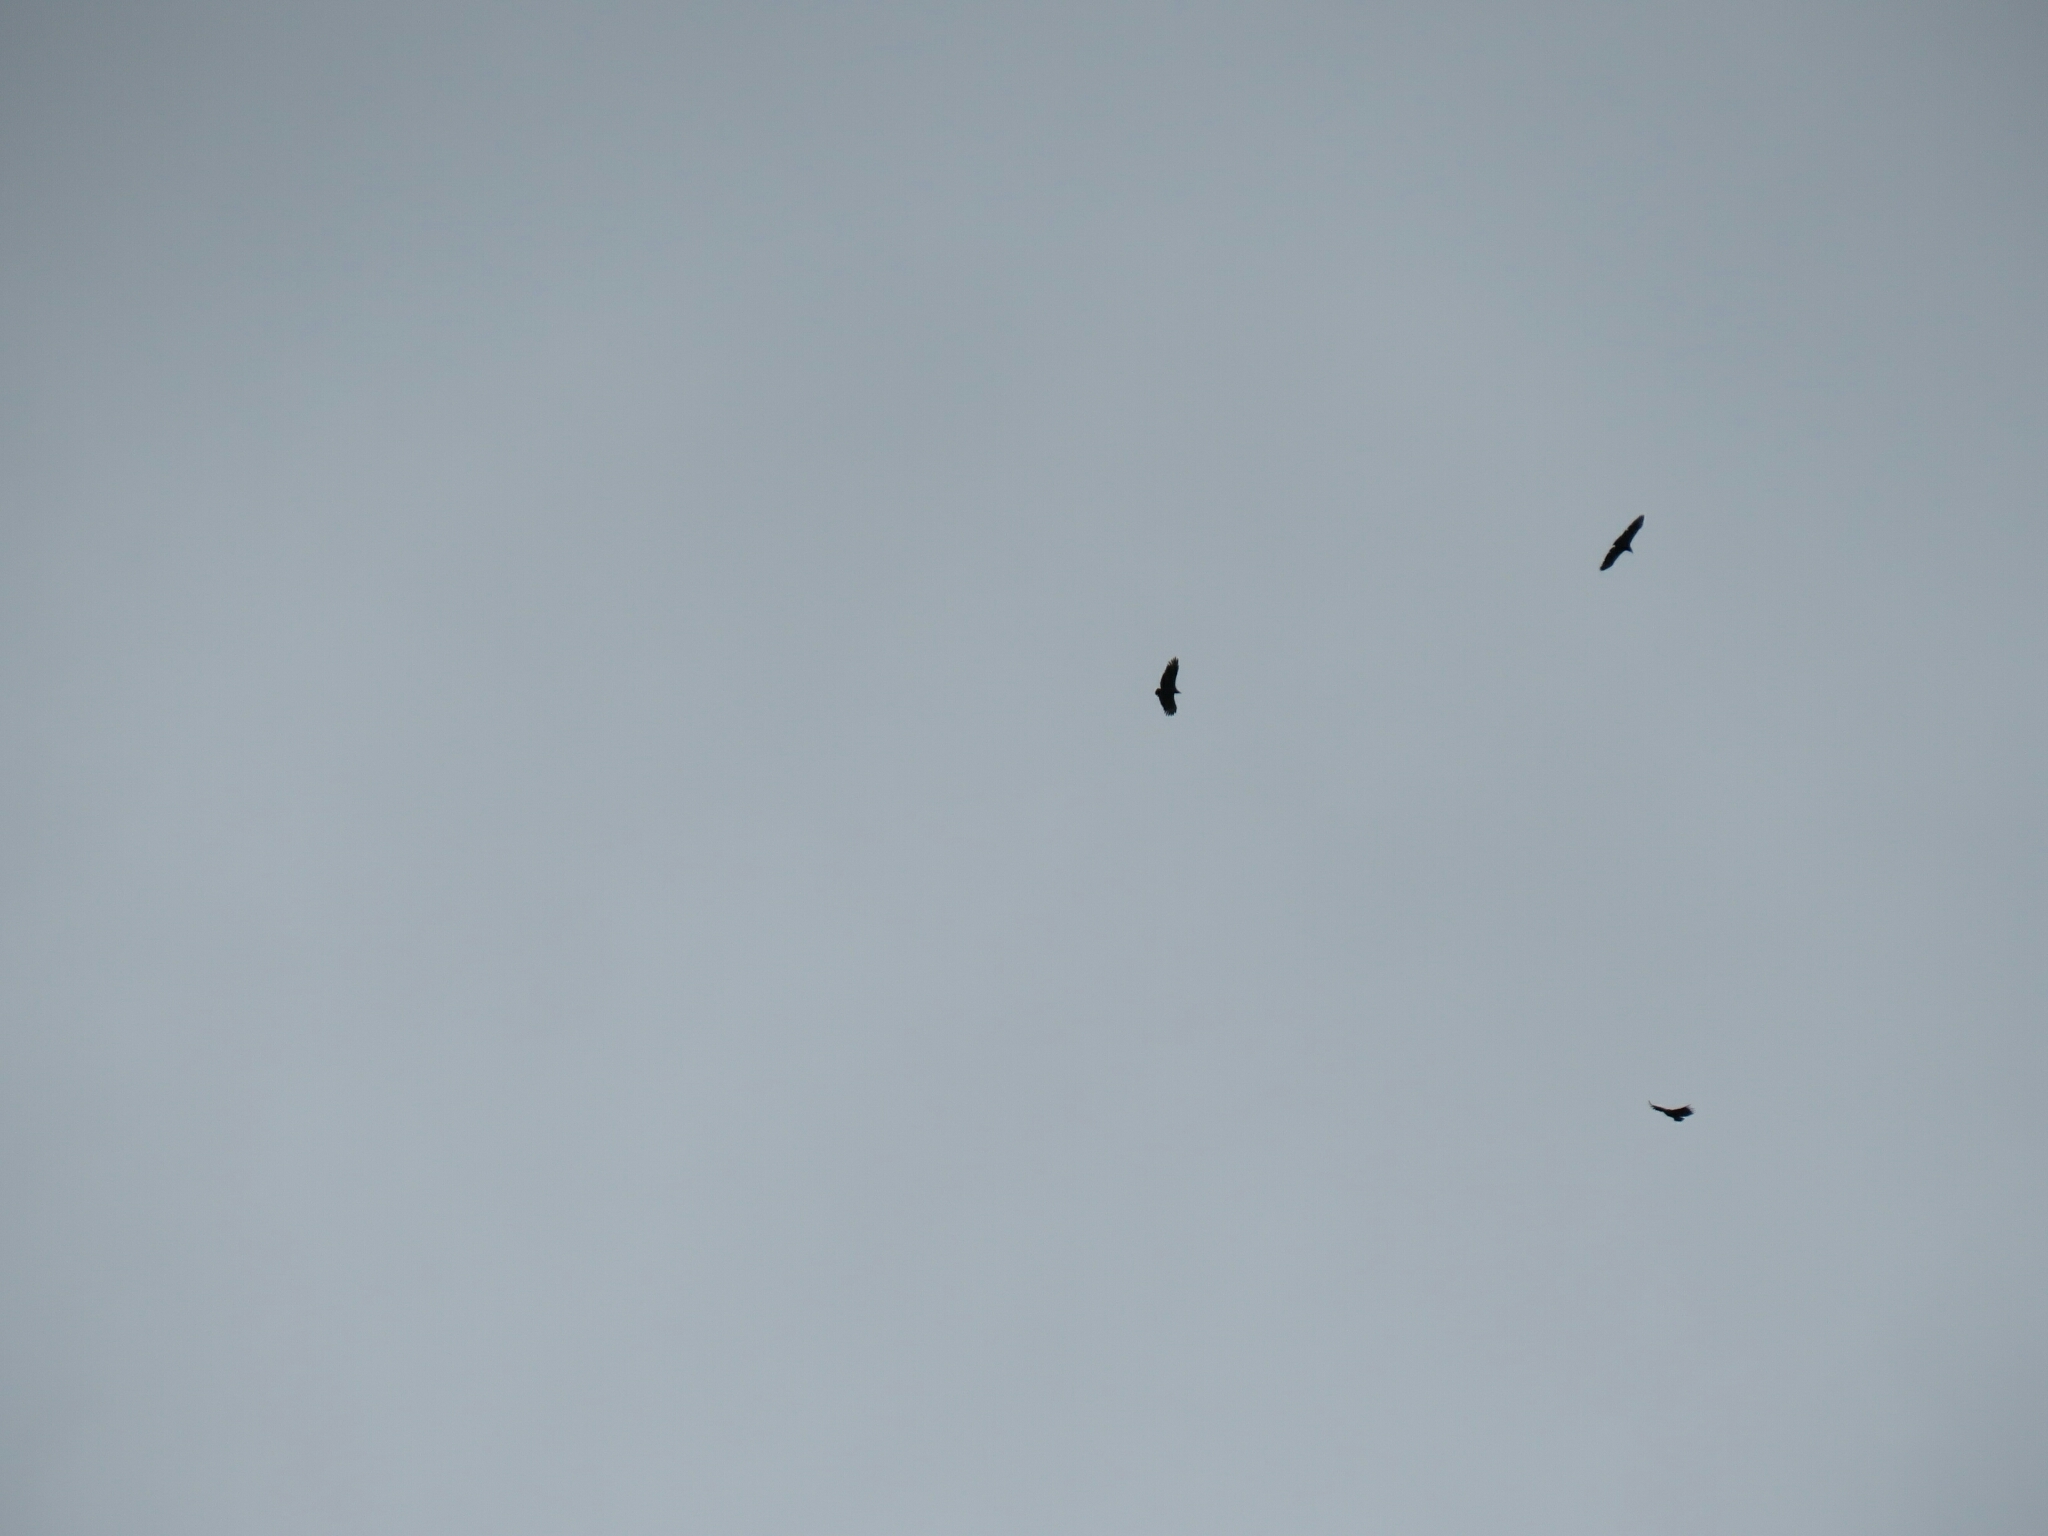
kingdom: Animalia
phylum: Chordata
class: Aves
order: Accipitriformes
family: Cathartidae
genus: Coragyps
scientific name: Coragyps atratus
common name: Black vulture
